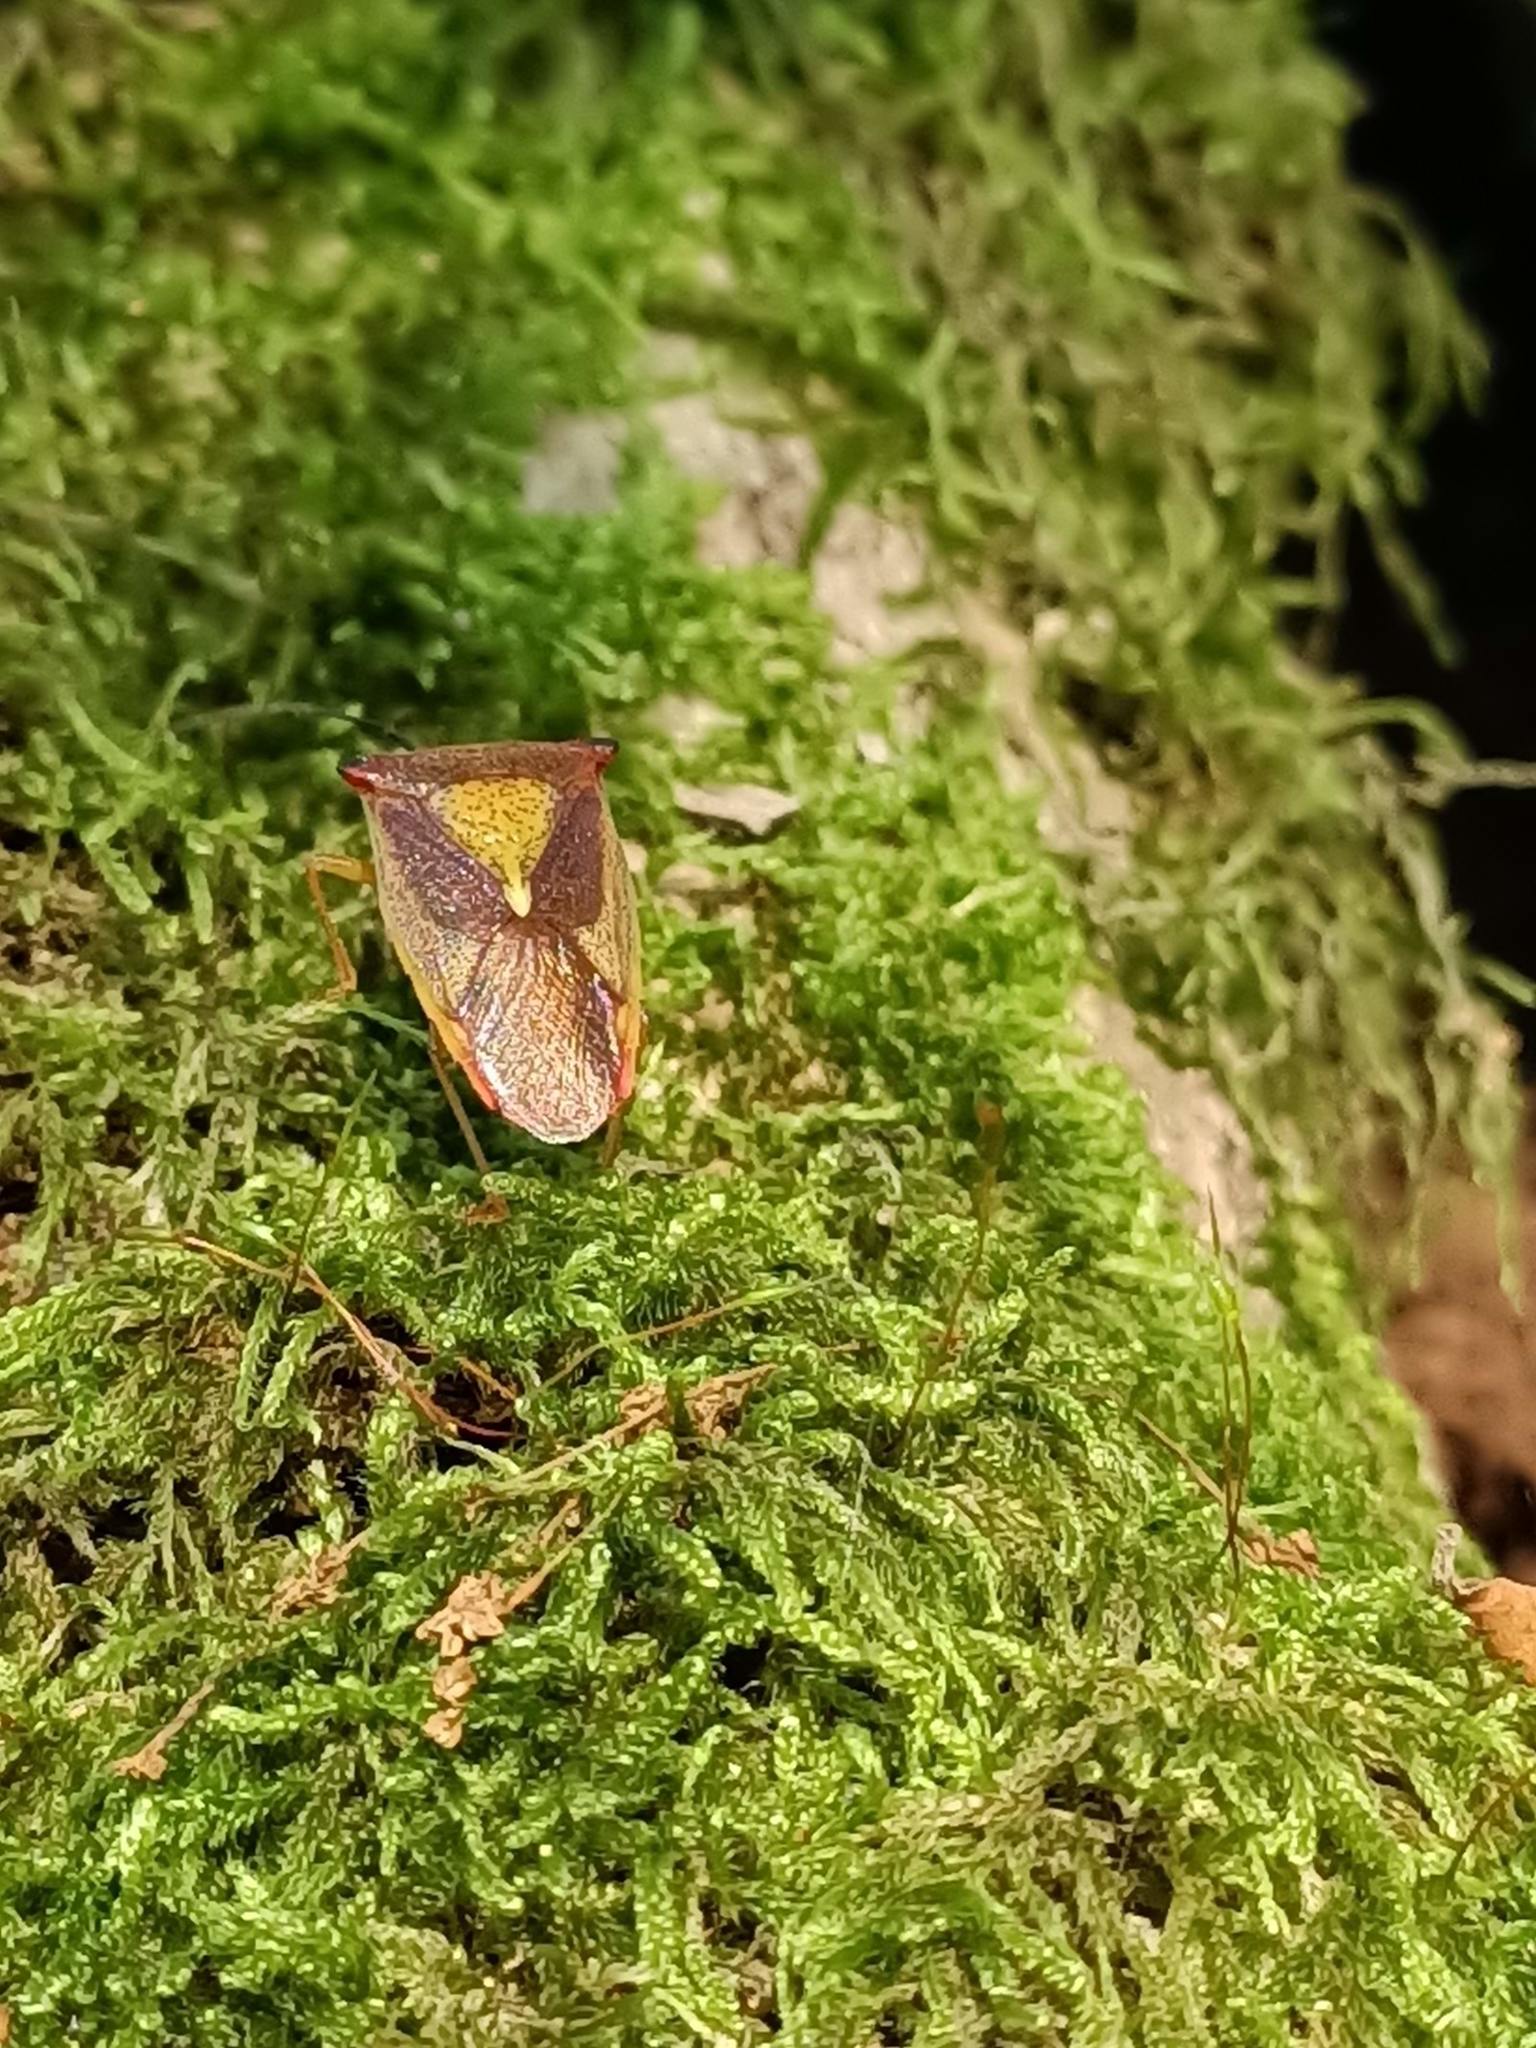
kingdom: Animalia
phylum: Arthropoda
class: Insecta
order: Hemiptera
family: Acanthosomatidae
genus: Acanthosoma
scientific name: Acanthosoma haemorrhoidale
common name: Hawthorn shieldbug
